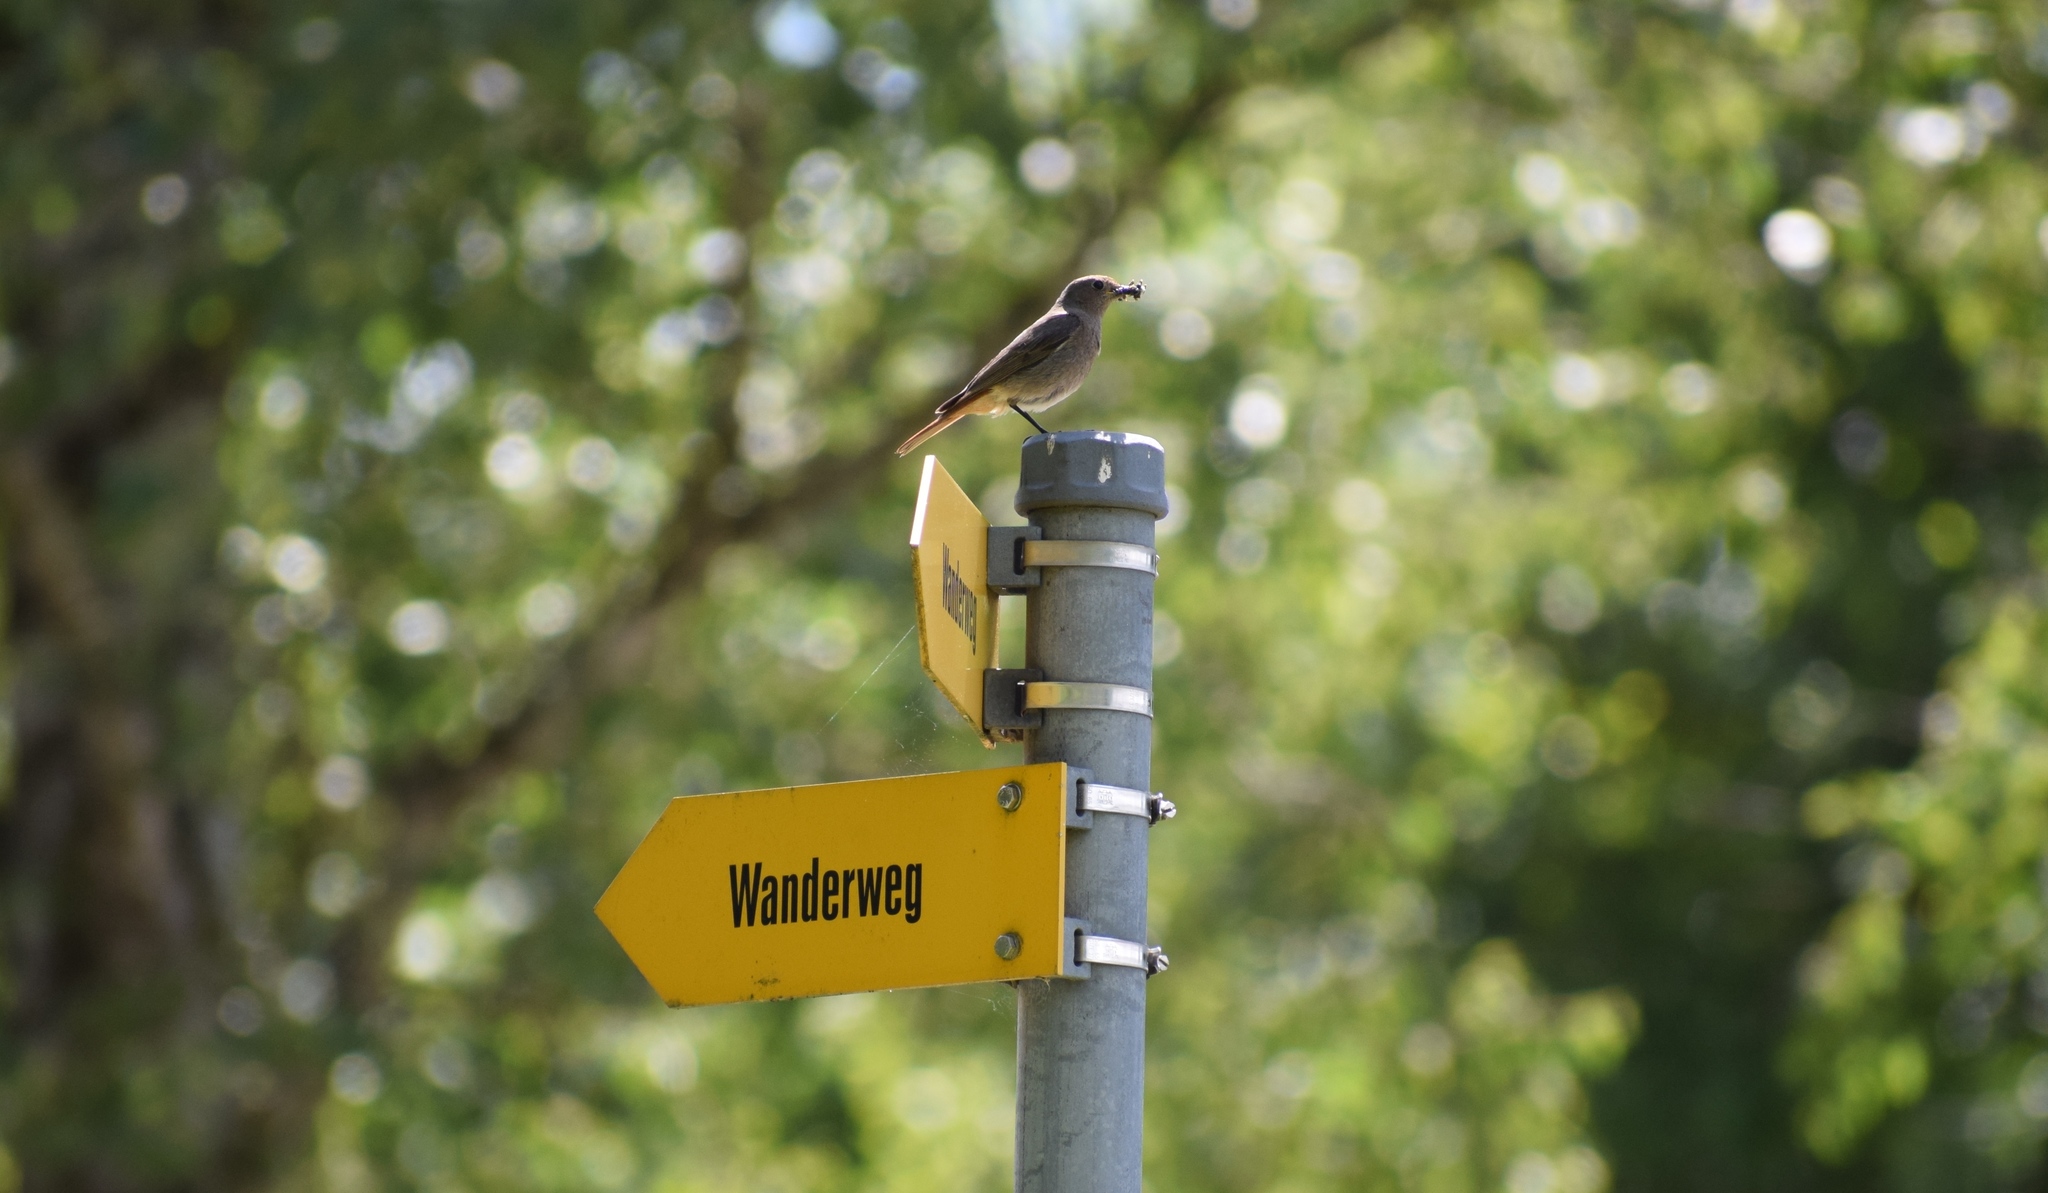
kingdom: Animalia
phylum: Chordata
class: Aves
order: Passeriformes
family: Muscicapidae
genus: Phoenicurus
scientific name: Phoenicurus ochruros
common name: Black redstart
